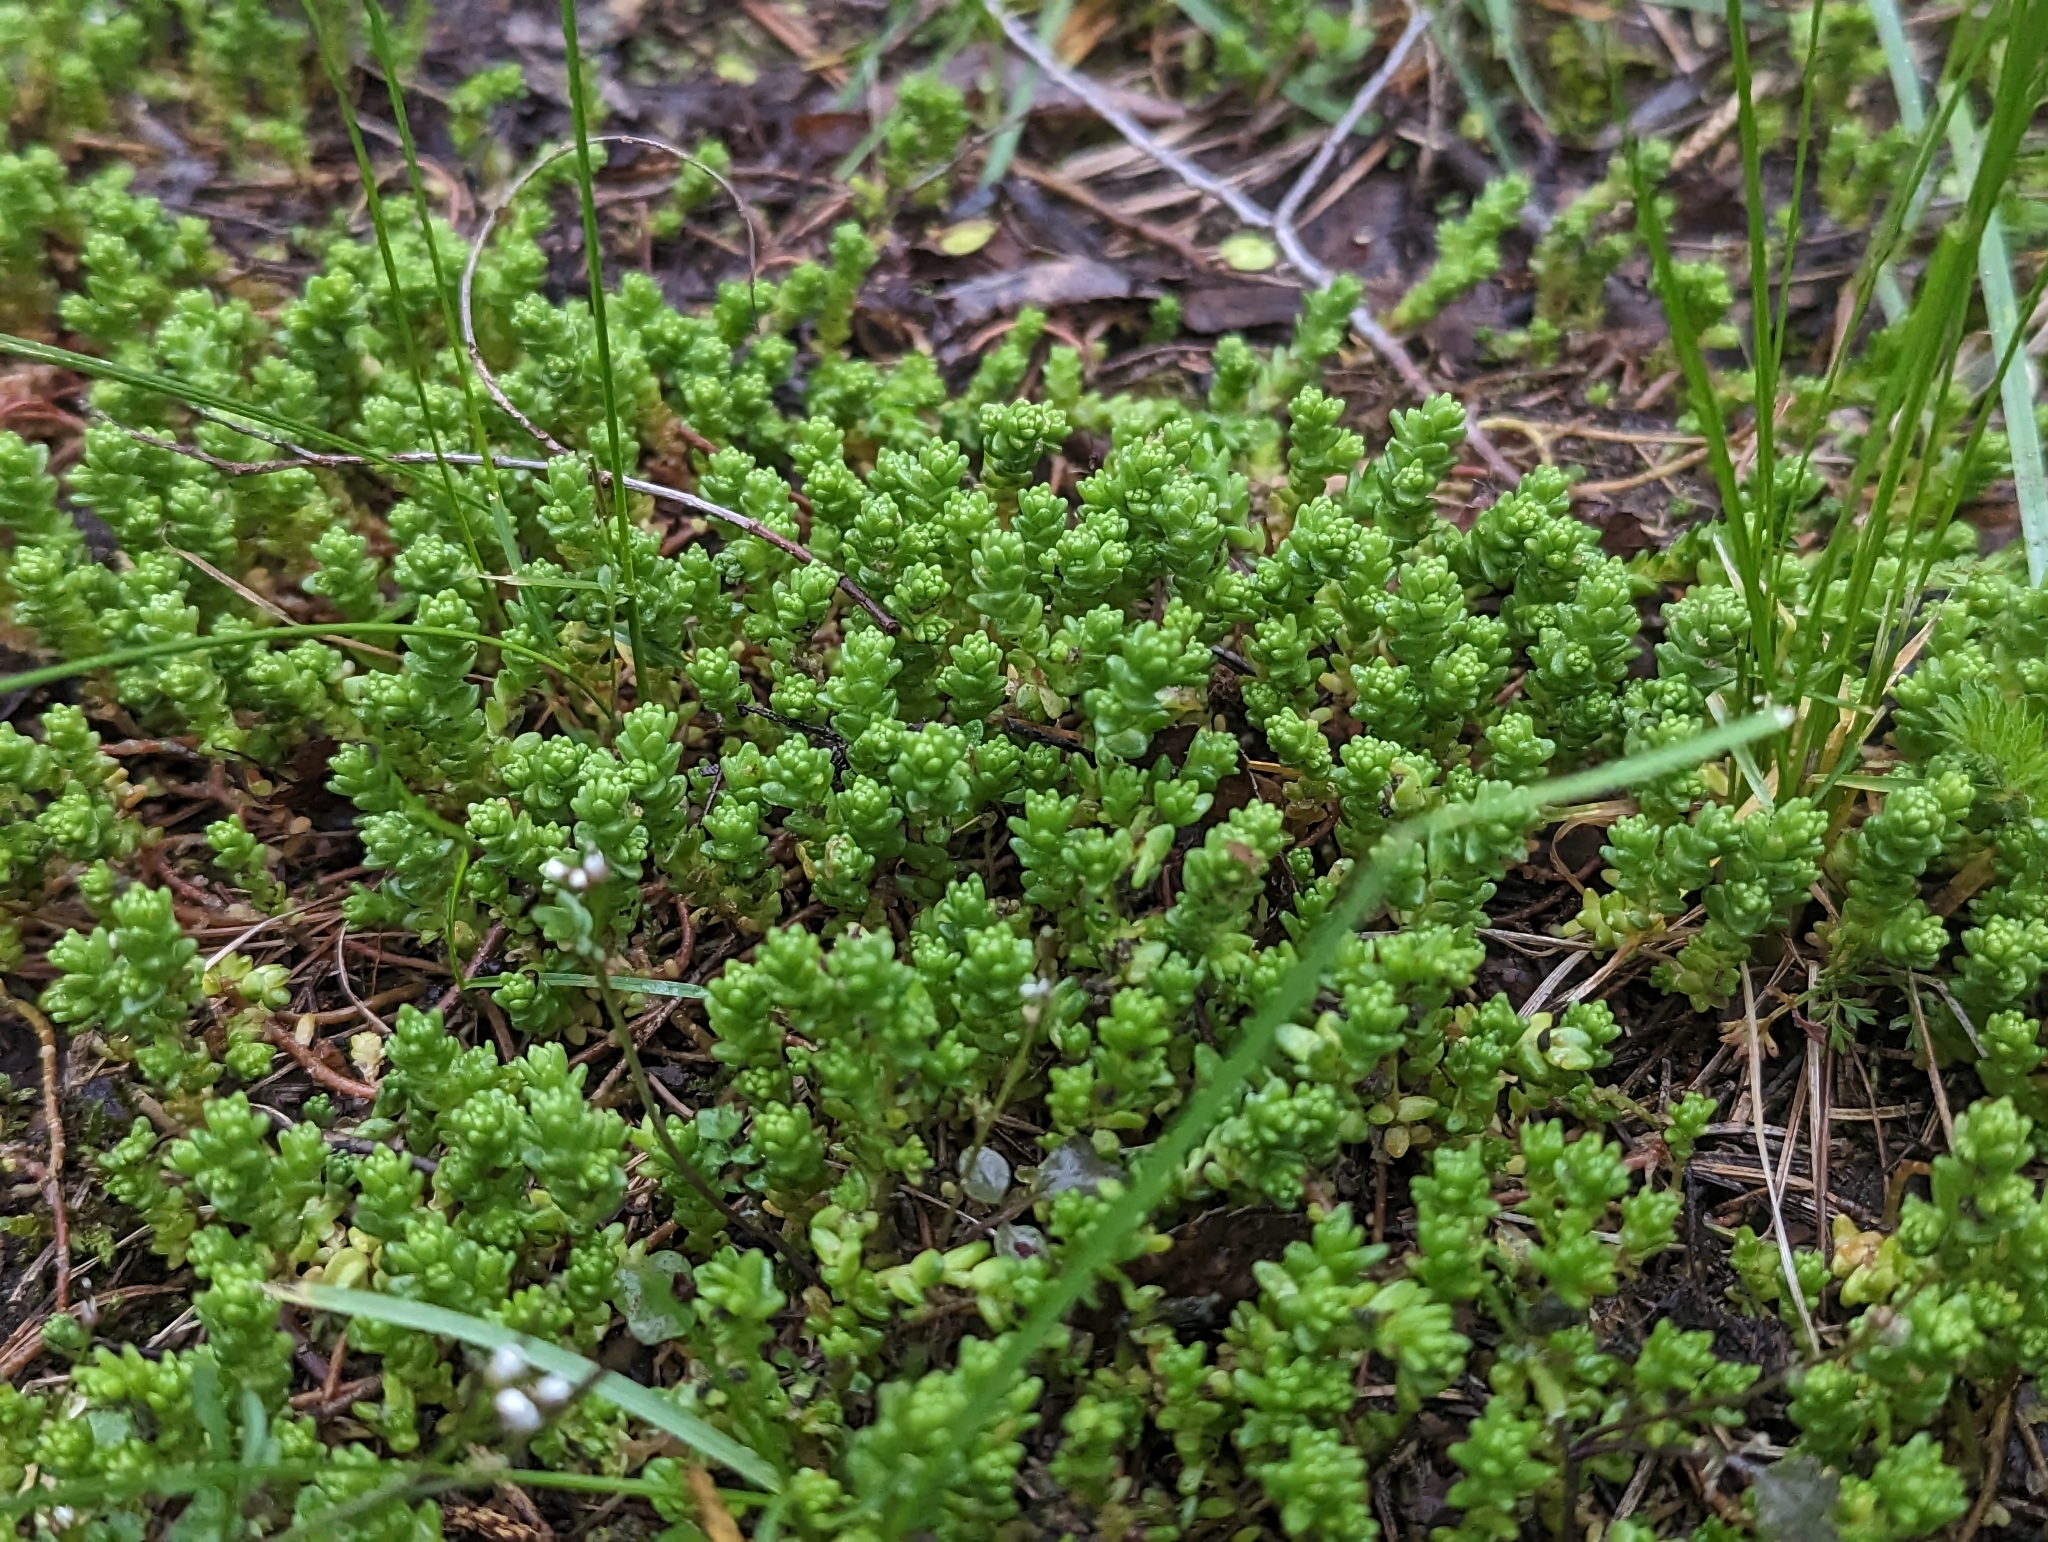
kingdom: Plantae
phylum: Tracheophyta
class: Magnoliopsida
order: Saxifragales
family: Crassulaceae
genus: Sedum
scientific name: Sedum acre
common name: Biting stonecrop
